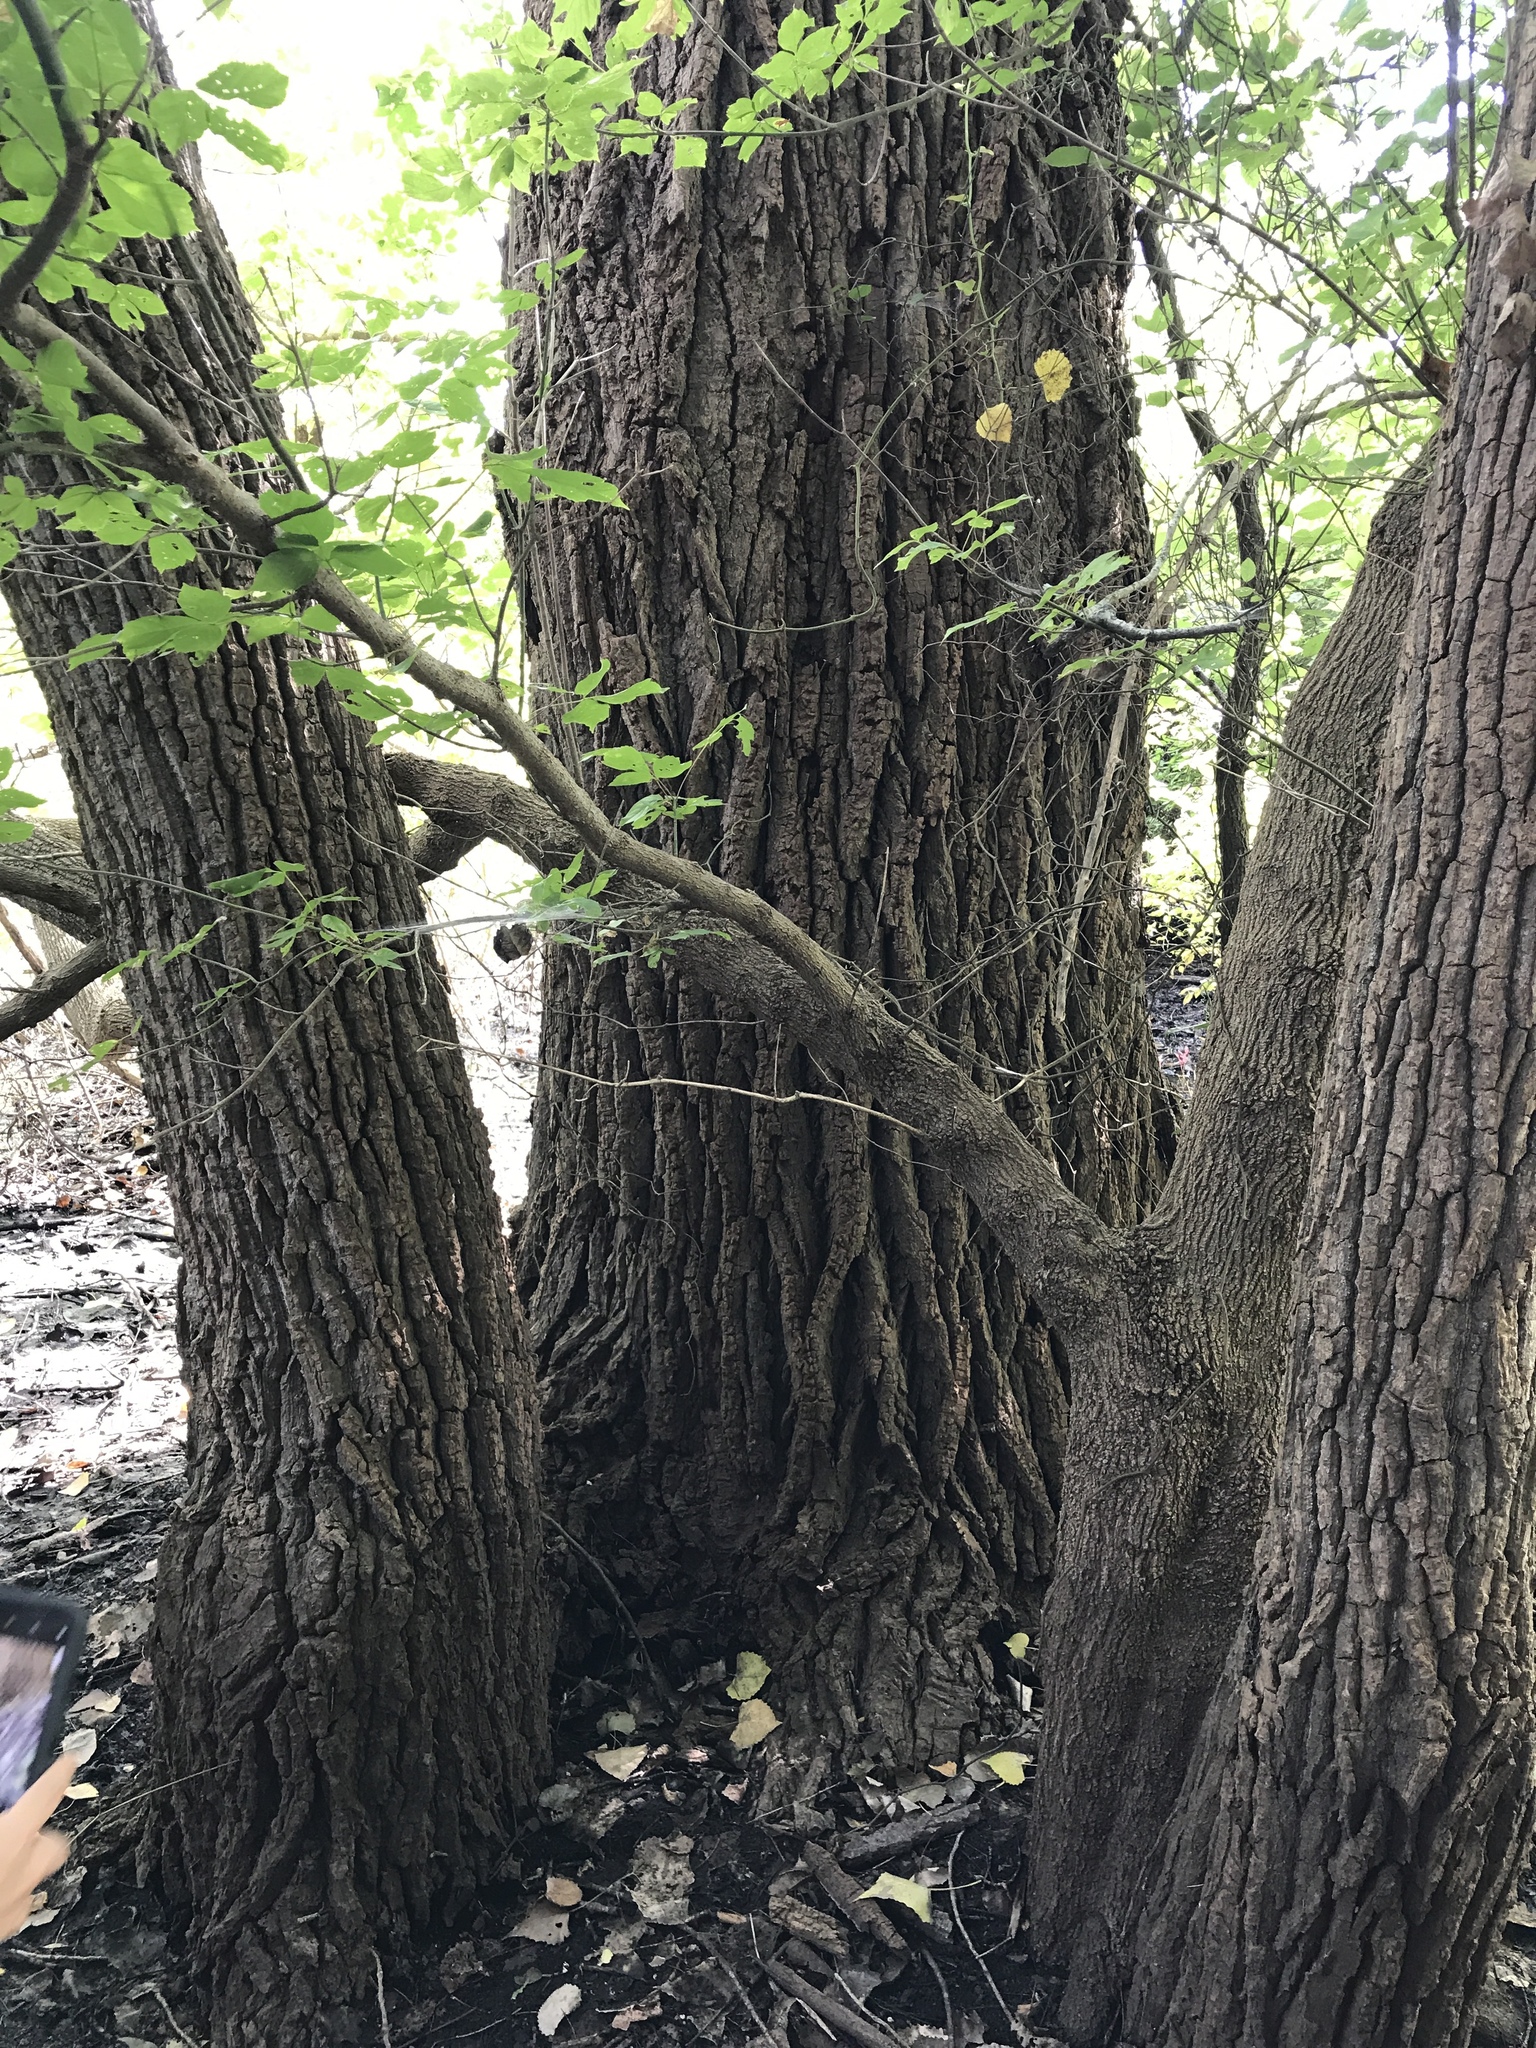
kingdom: Plantae
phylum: Tracheophyta
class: Magnoliopsida
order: Malpighiales
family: Salicaceae
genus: Populus
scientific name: Populus deltoides
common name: Eastern cottonwood
